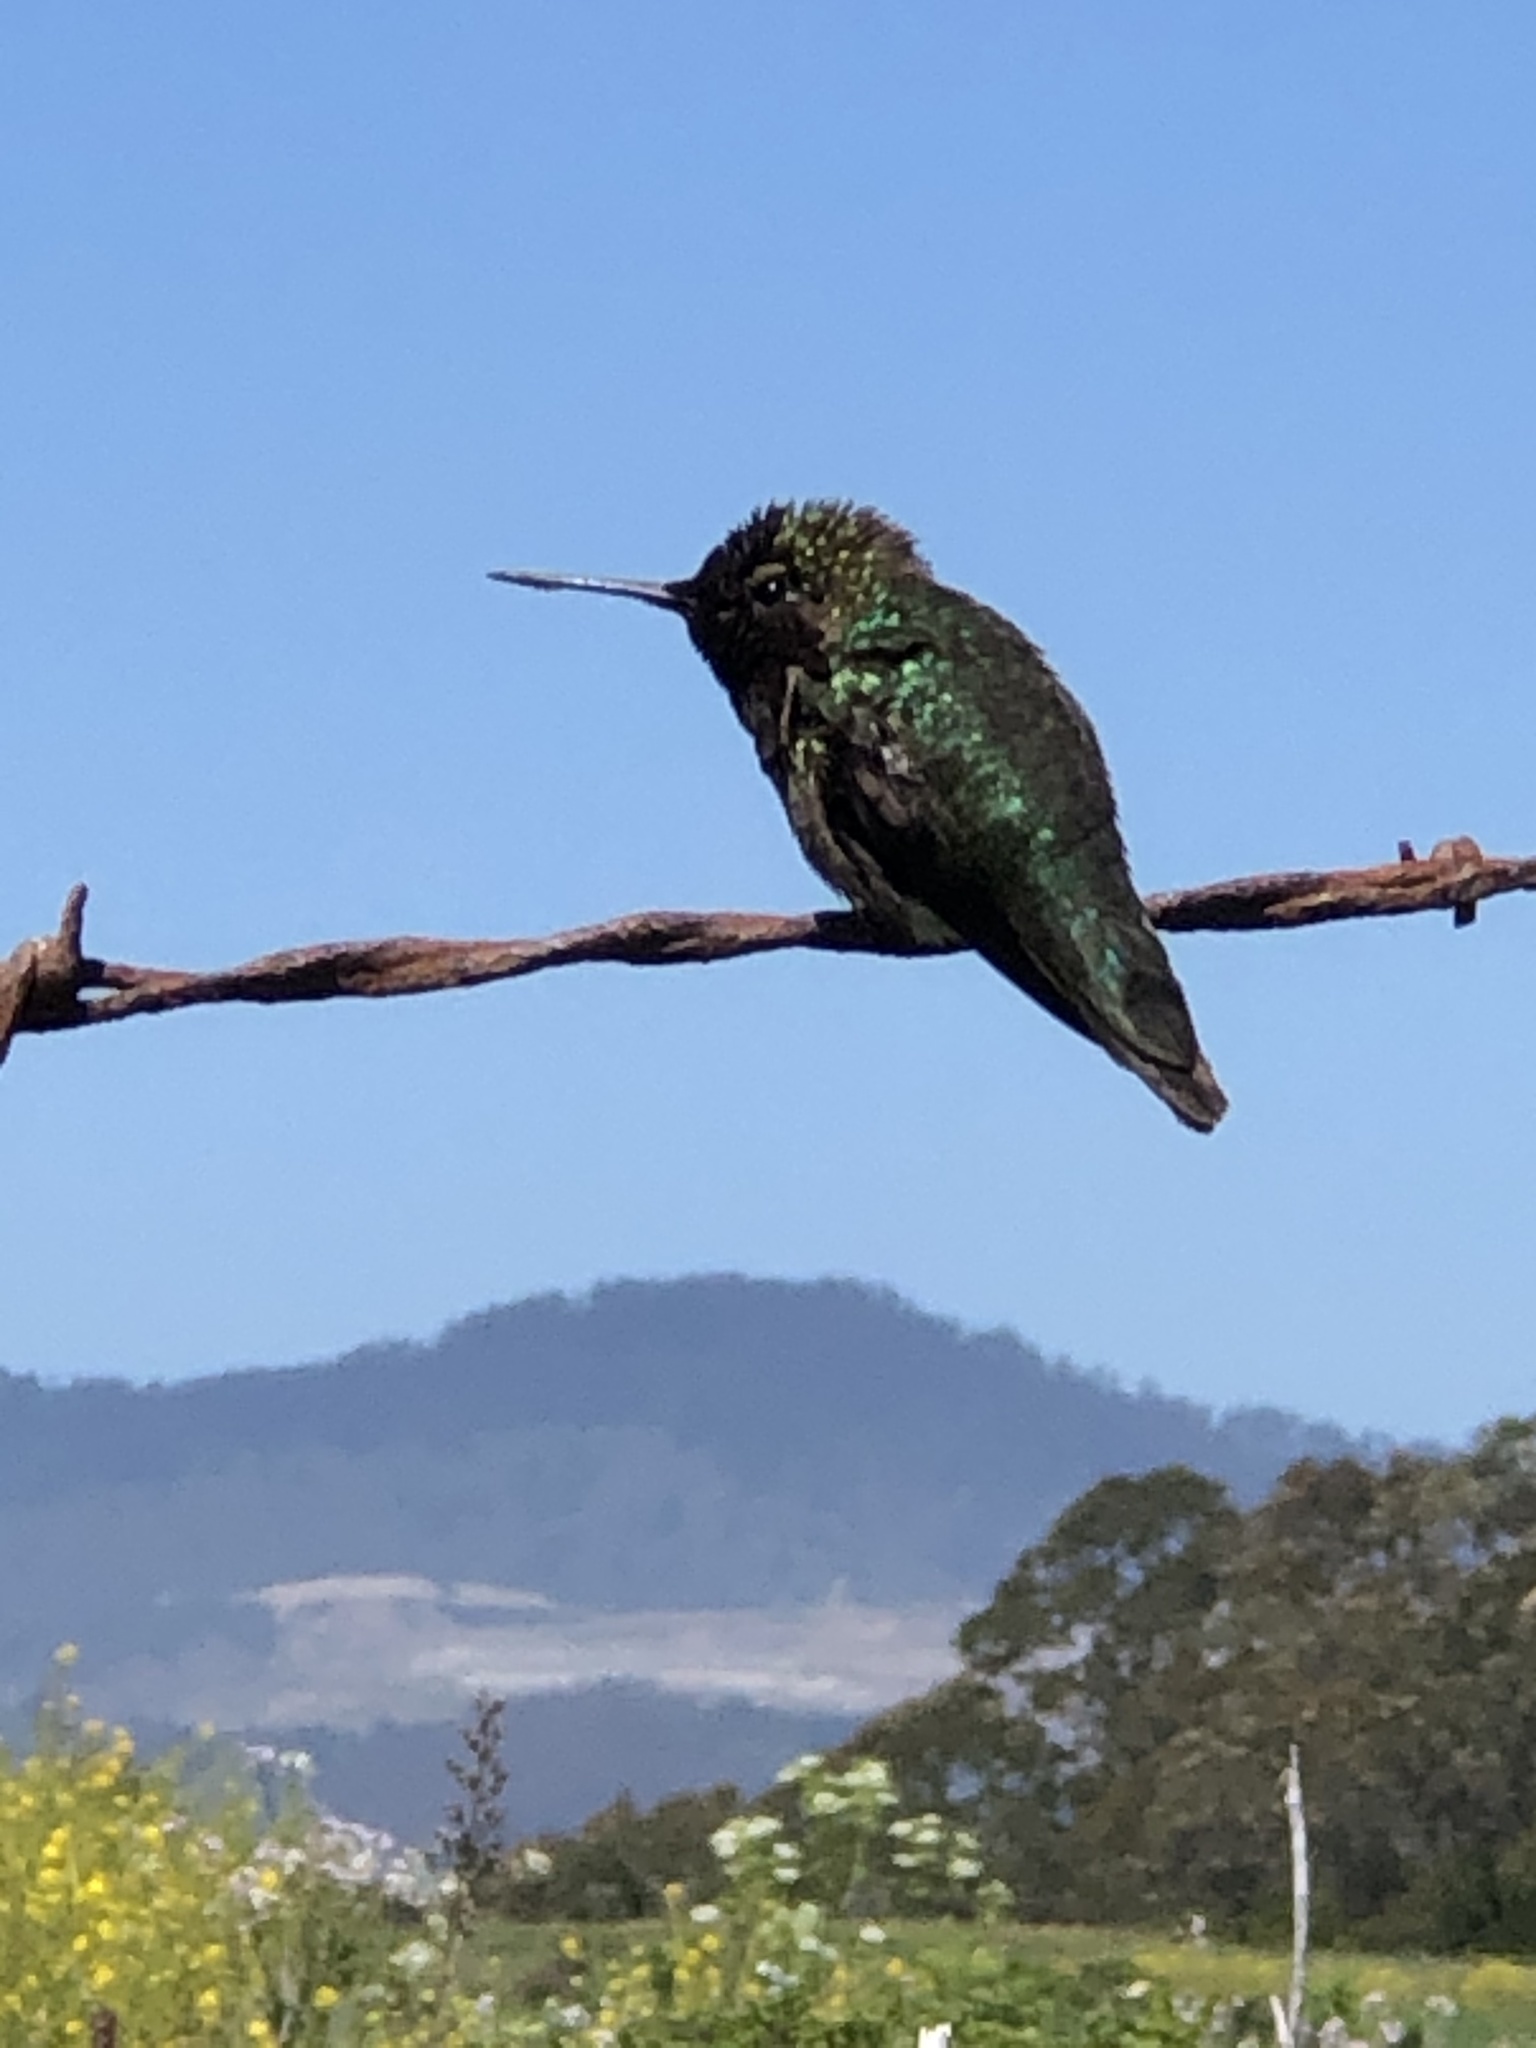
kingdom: Animalia
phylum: Chordata
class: Aves
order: Apodiformes
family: Trochilidae
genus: Calypte
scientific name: Calypte anna
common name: Anna's hummingbird
